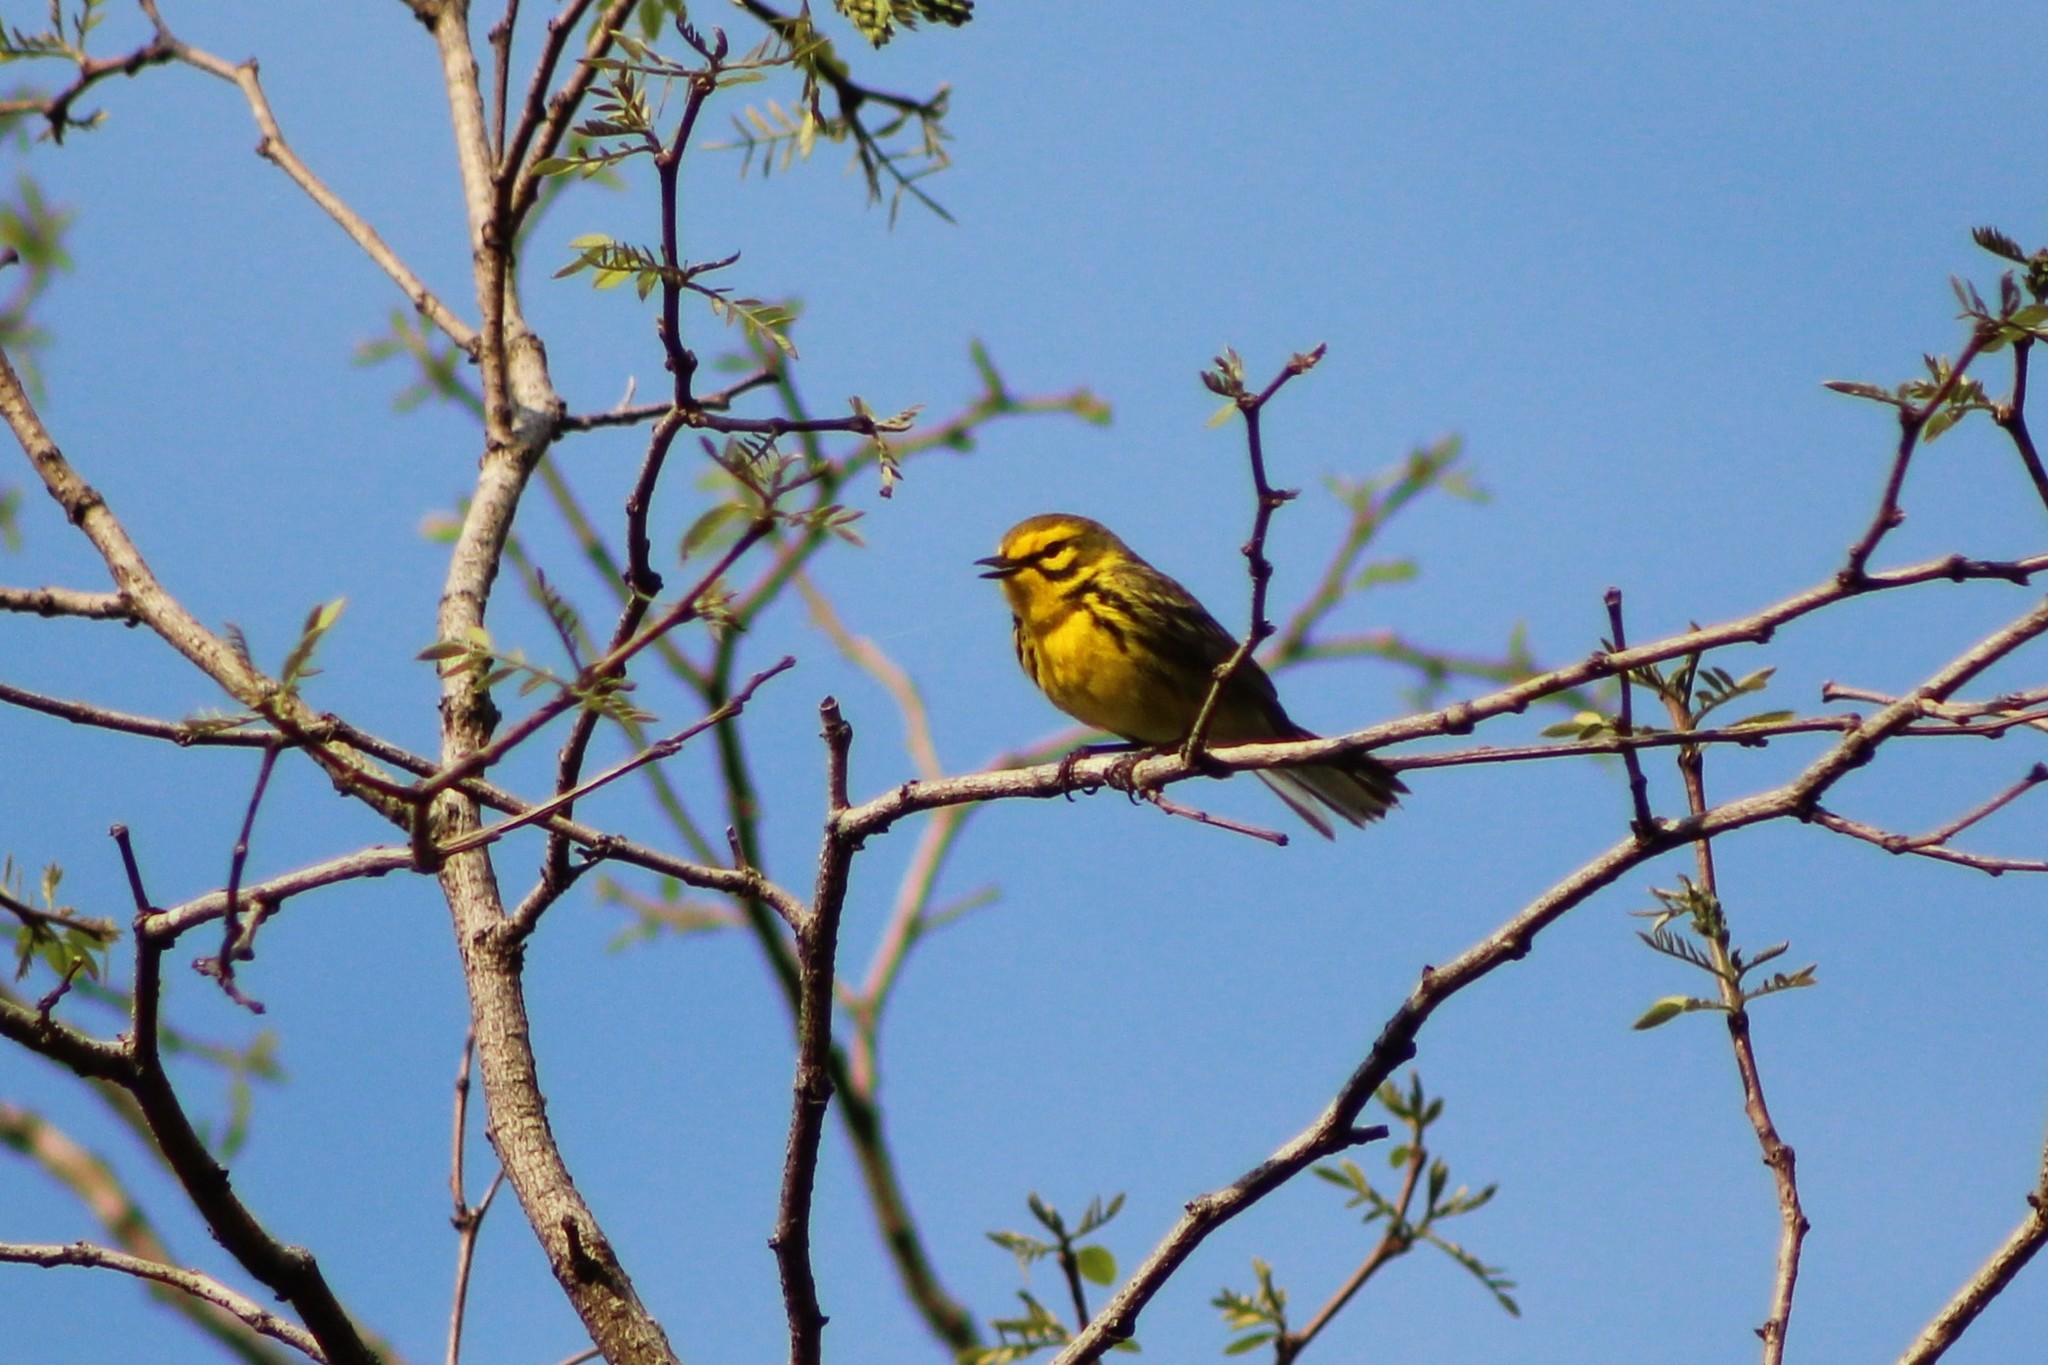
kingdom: Animalia
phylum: Chordata
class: Aves
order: Passeriformes
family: Parulidae
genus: Setophaga
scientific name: Setophaga discolor
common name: Prairie warbler
